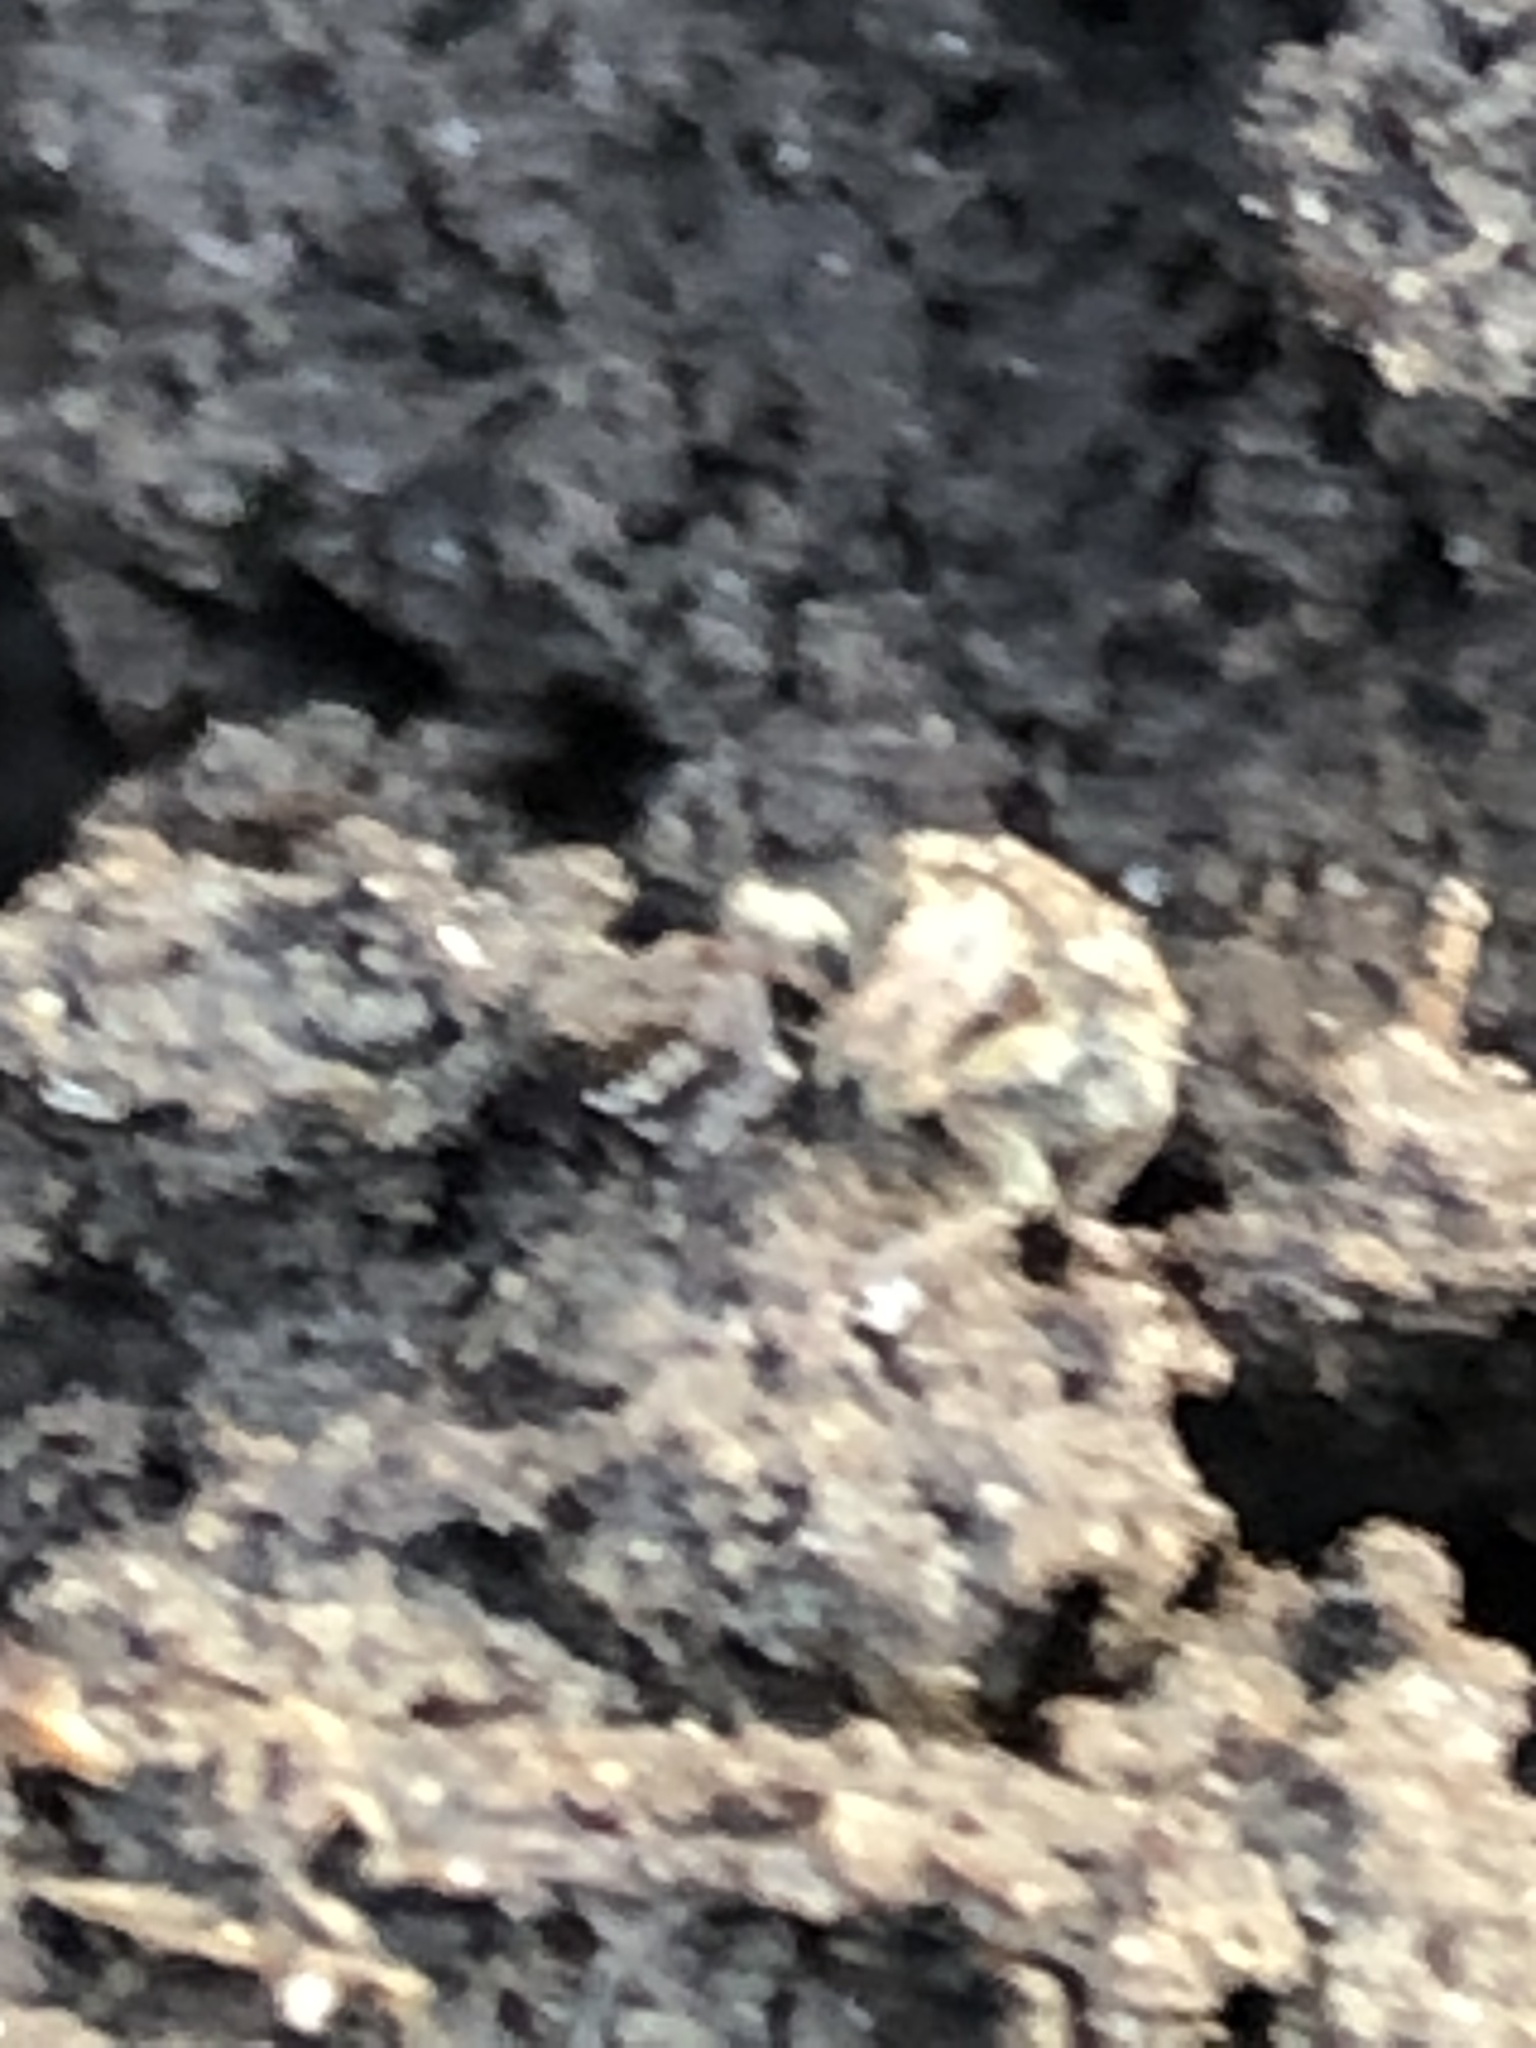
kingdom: Animalia
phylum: Arthropoda
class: Insecta
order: Coleoptera
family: Curculionidae
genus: Sitona
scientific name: Sitona hispidulus
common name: Clover weevil
